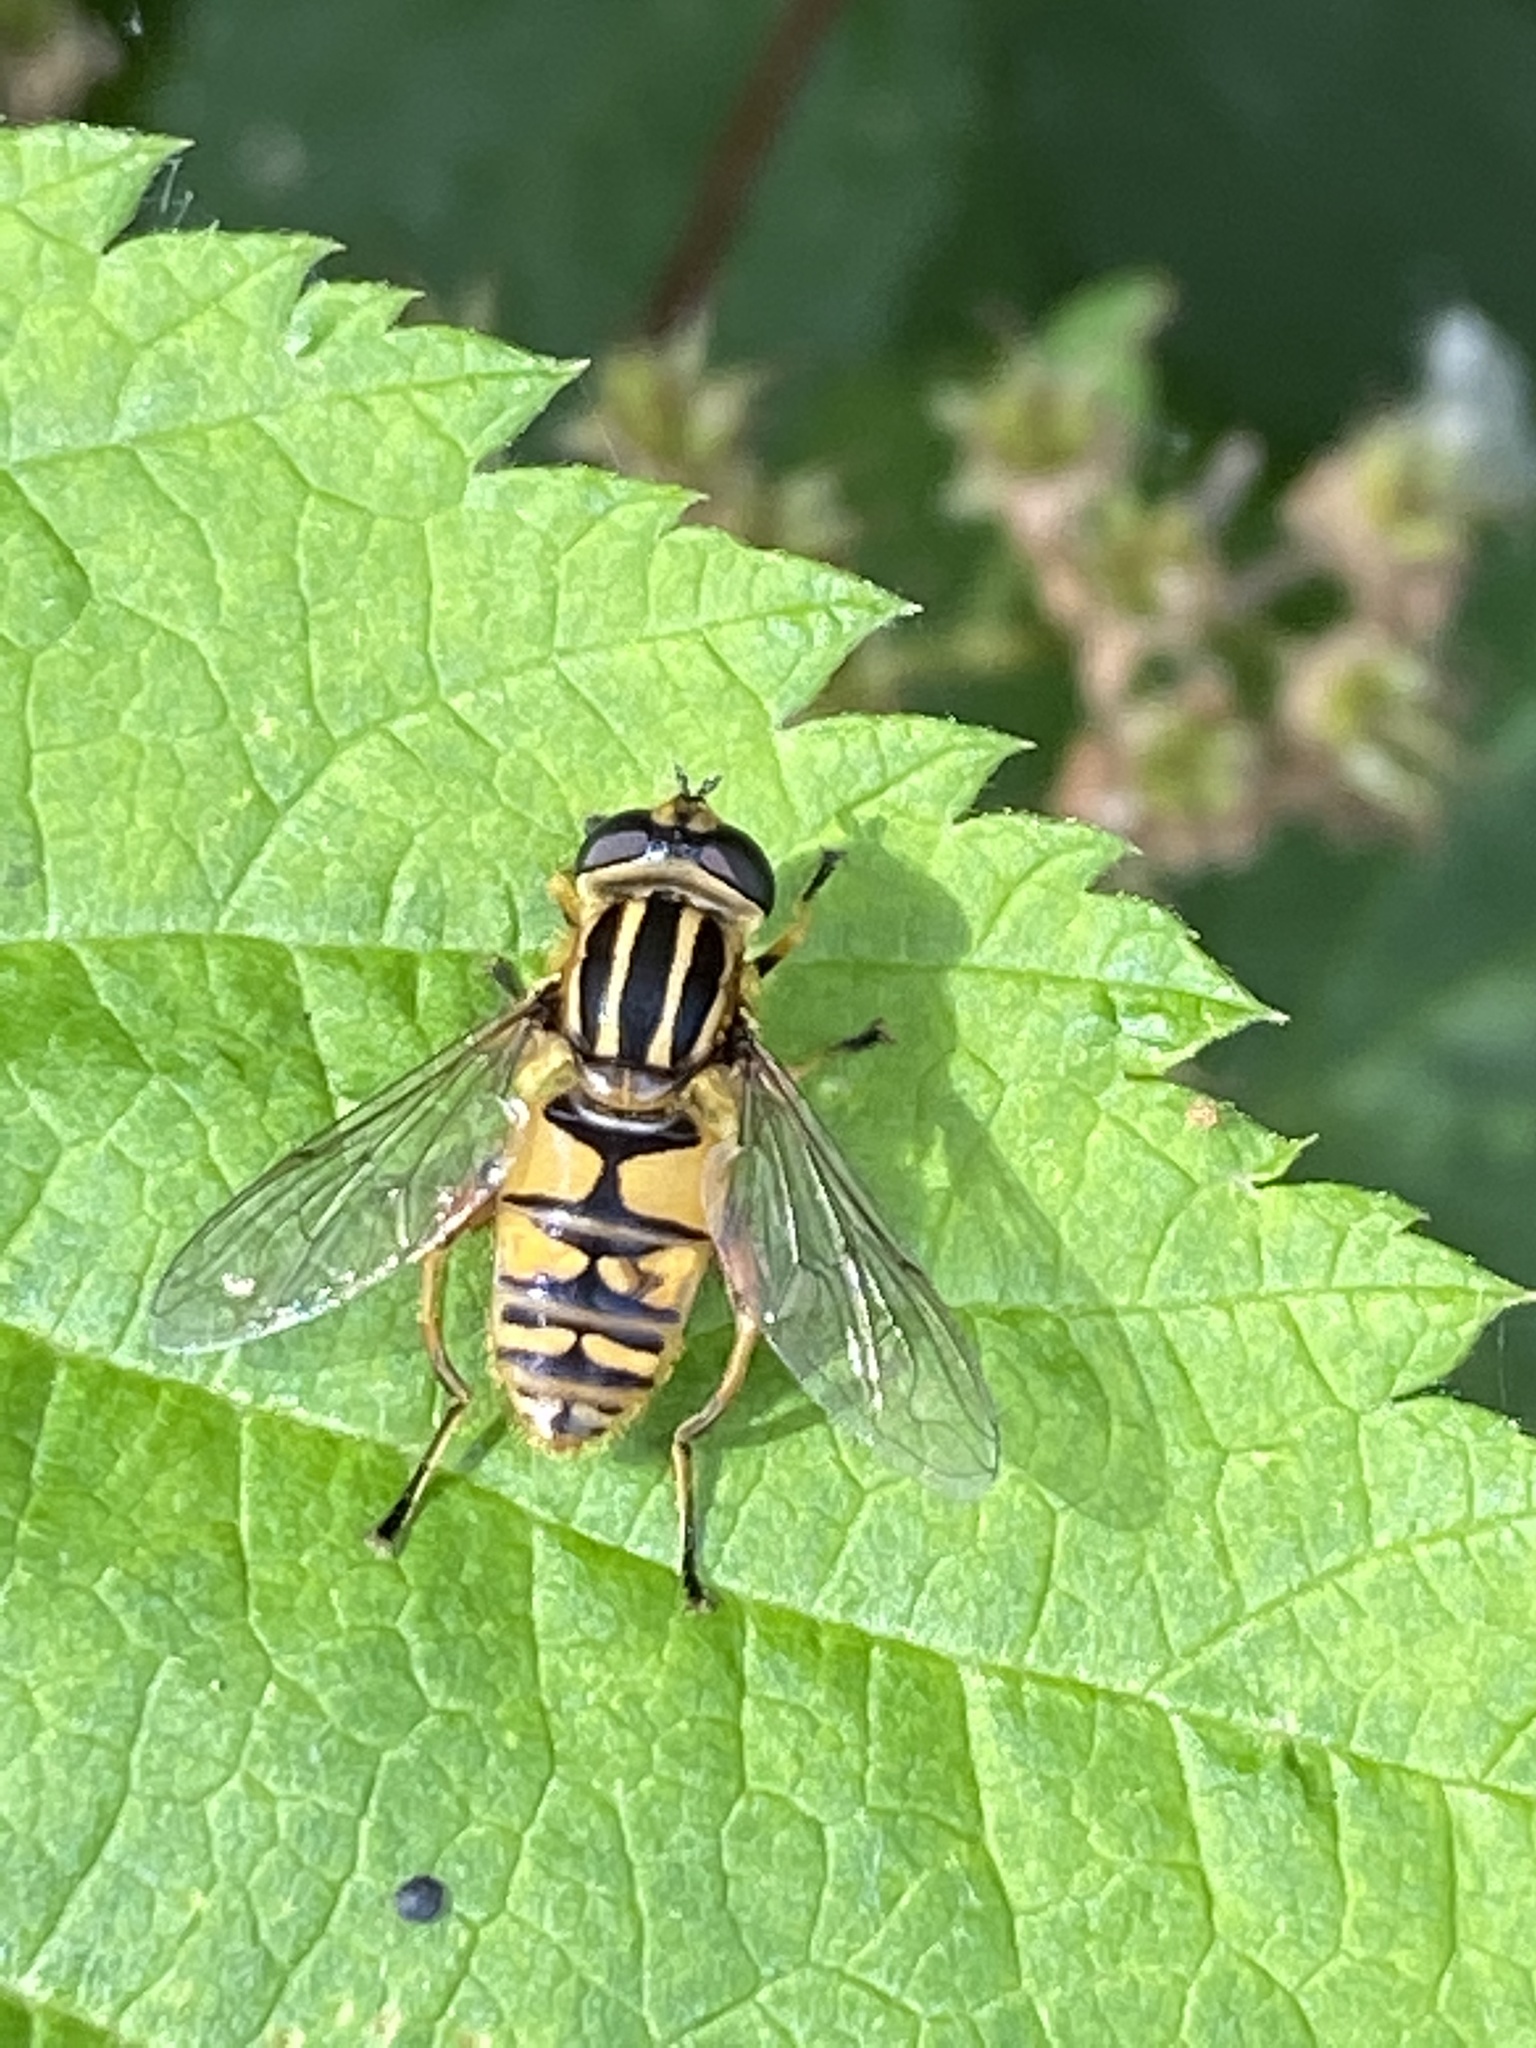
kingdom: Animalia
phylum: Arthropoda
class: Insecta
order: Diptera
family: Syrphidae
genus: Helophilus
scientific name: Helophilus pendulus
